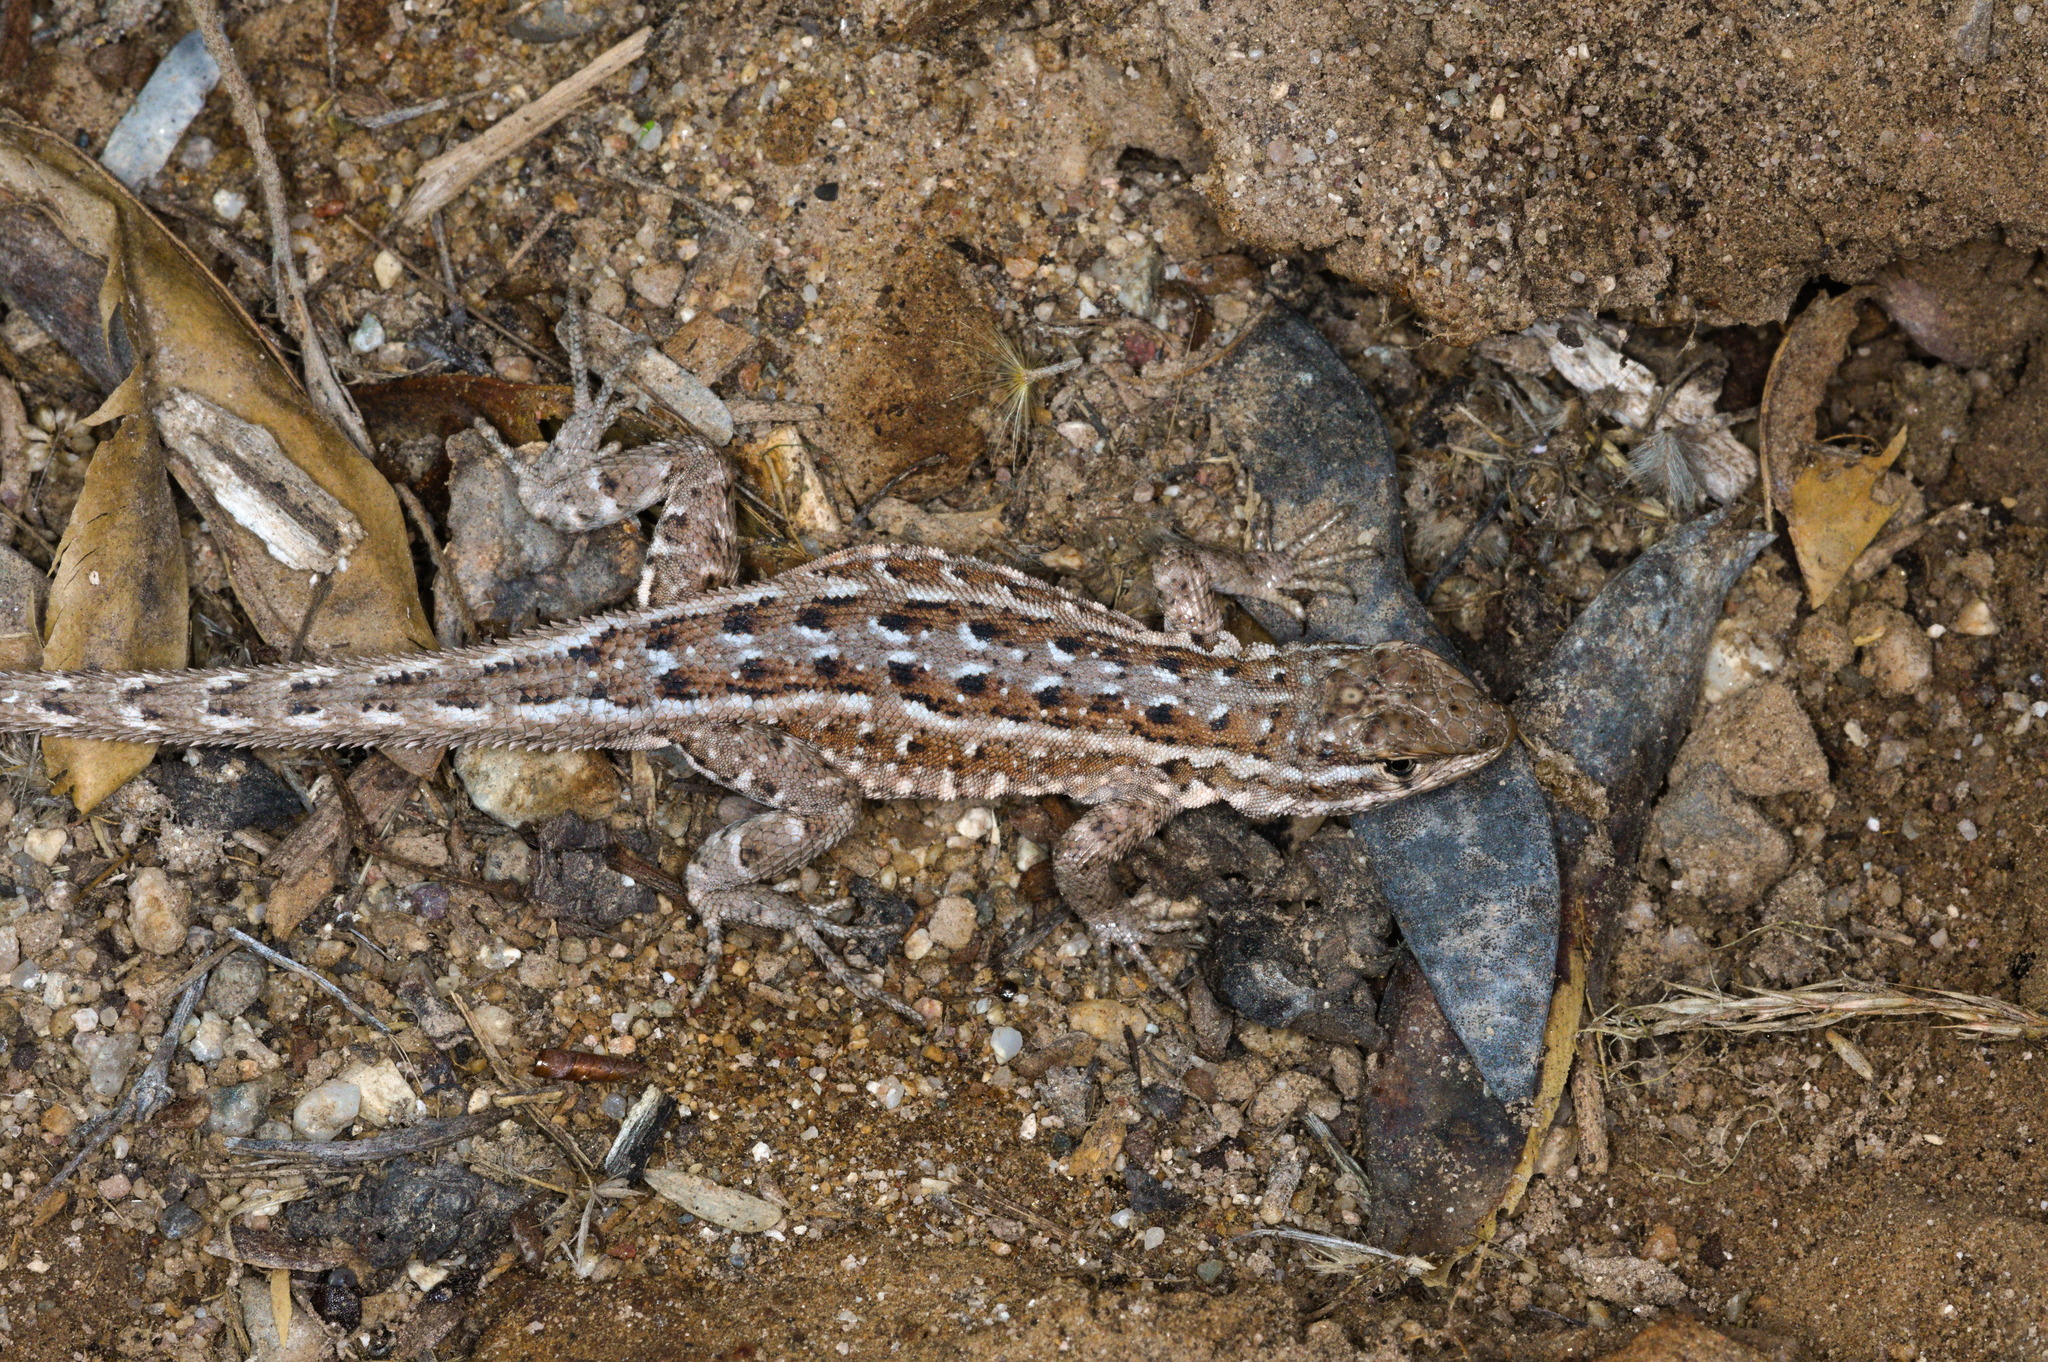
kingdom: Animalia
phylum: Chordata
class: Squamata
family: Phrynosomatidae
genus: Uta
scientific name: Uta stansburiana
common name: Side-blotched lizard
